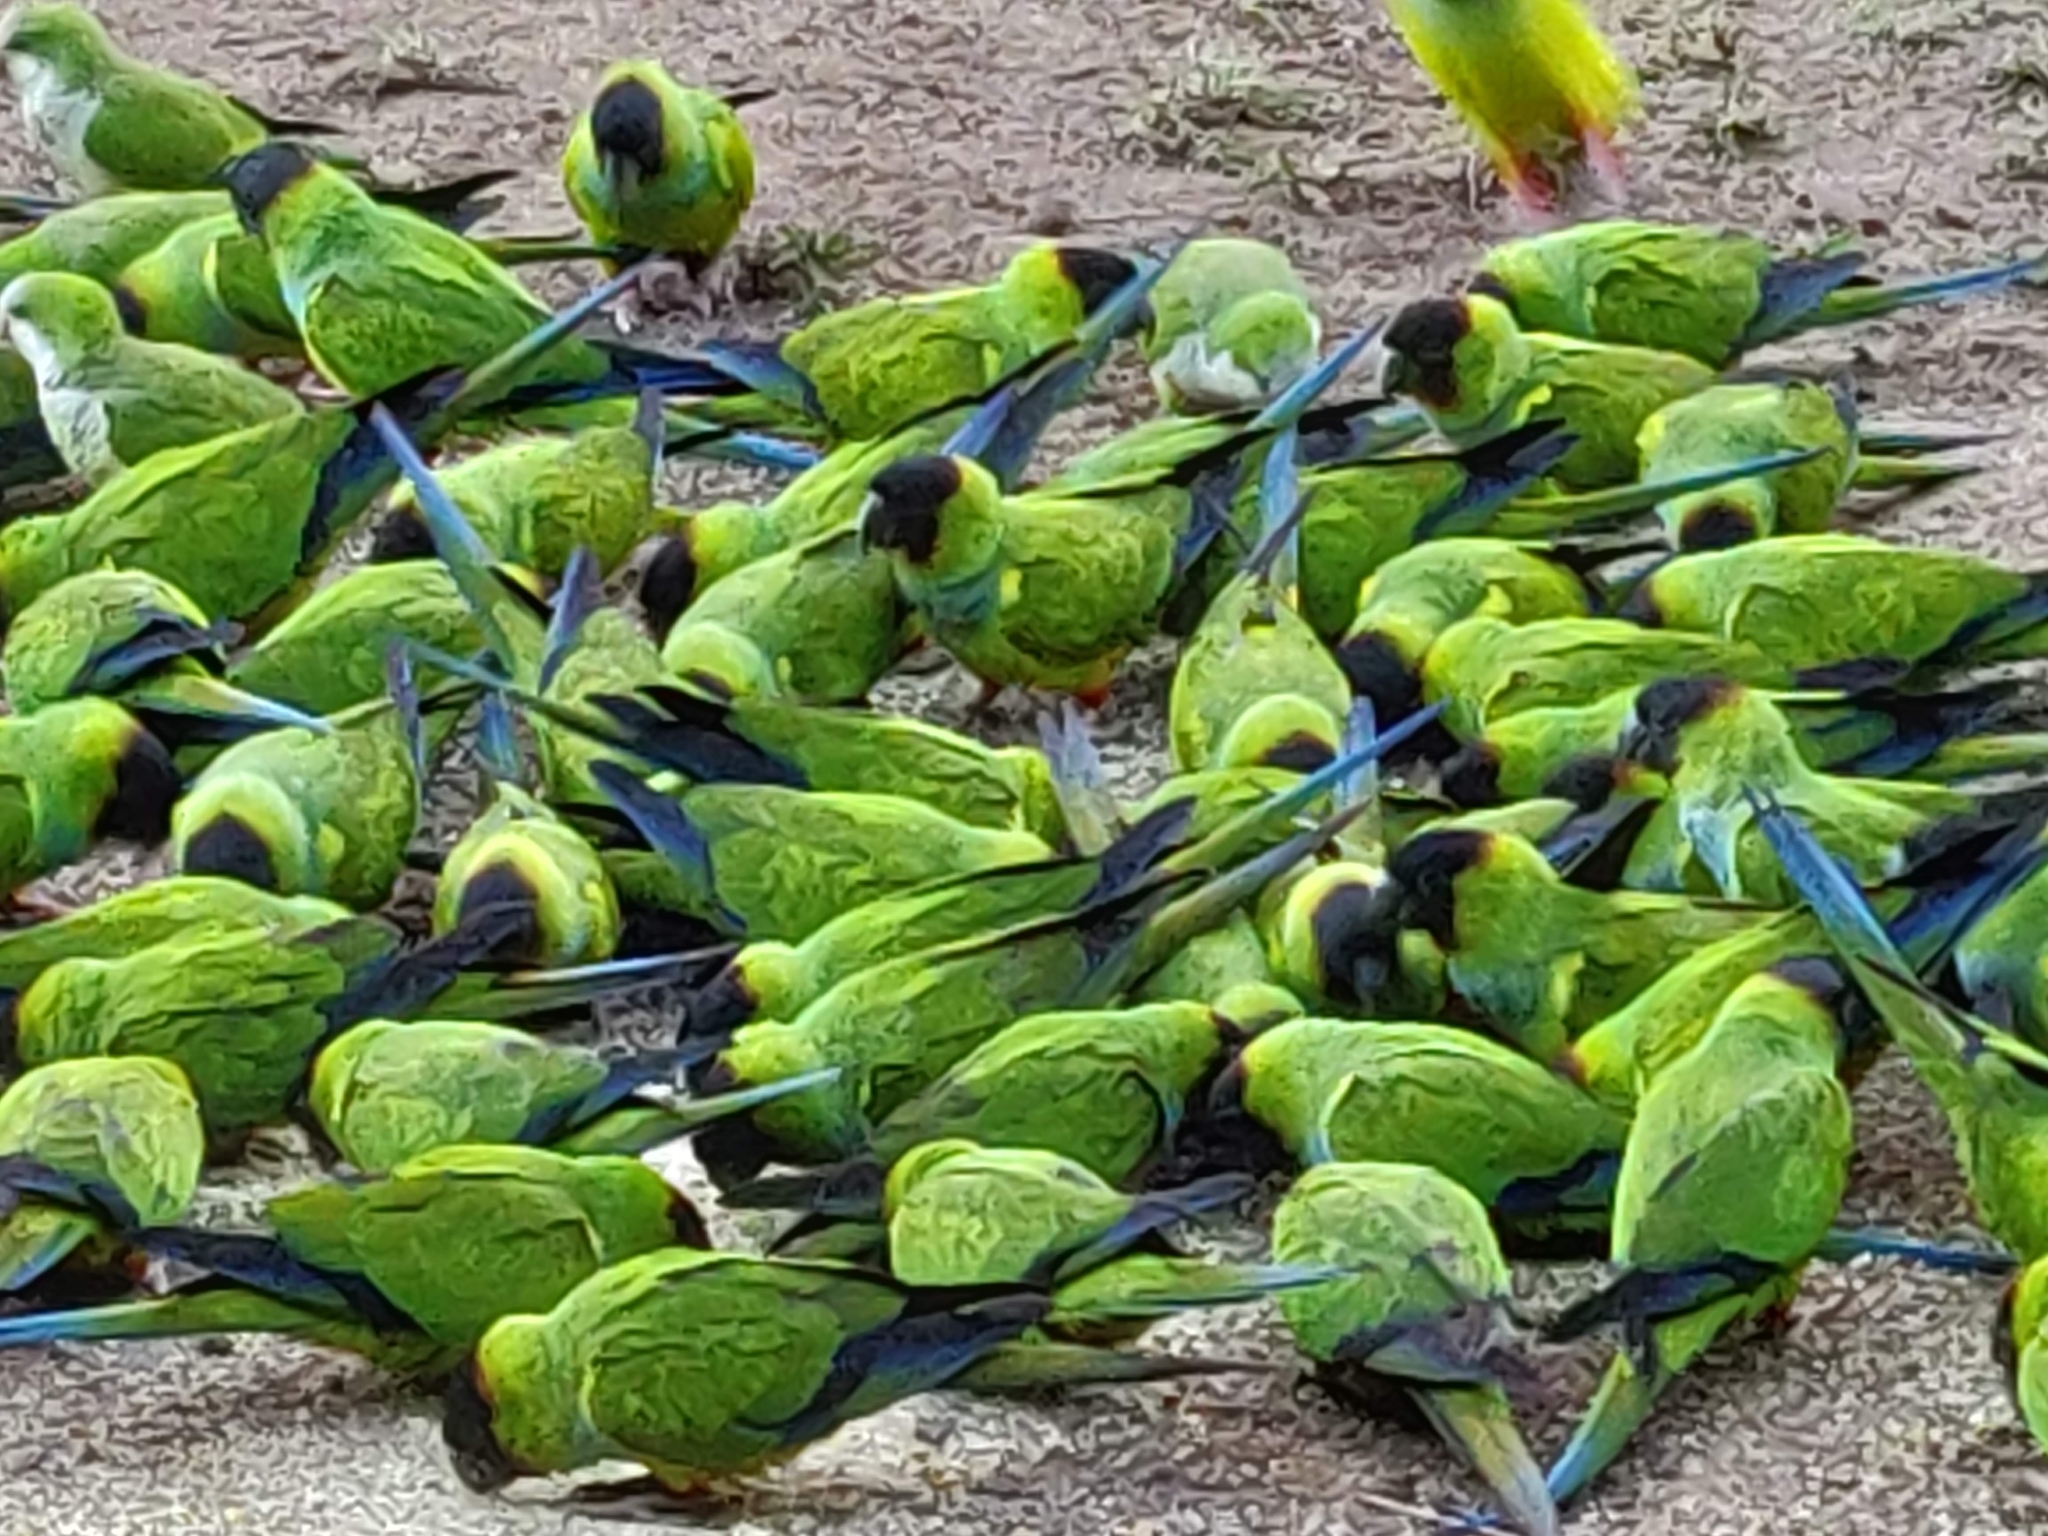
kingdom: Animalia
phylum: Chordata
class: Aves
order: Psittaciformes
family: Psittacidae
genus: Nandayus
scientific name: Nandayus nenday
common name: Nanday parakeet
